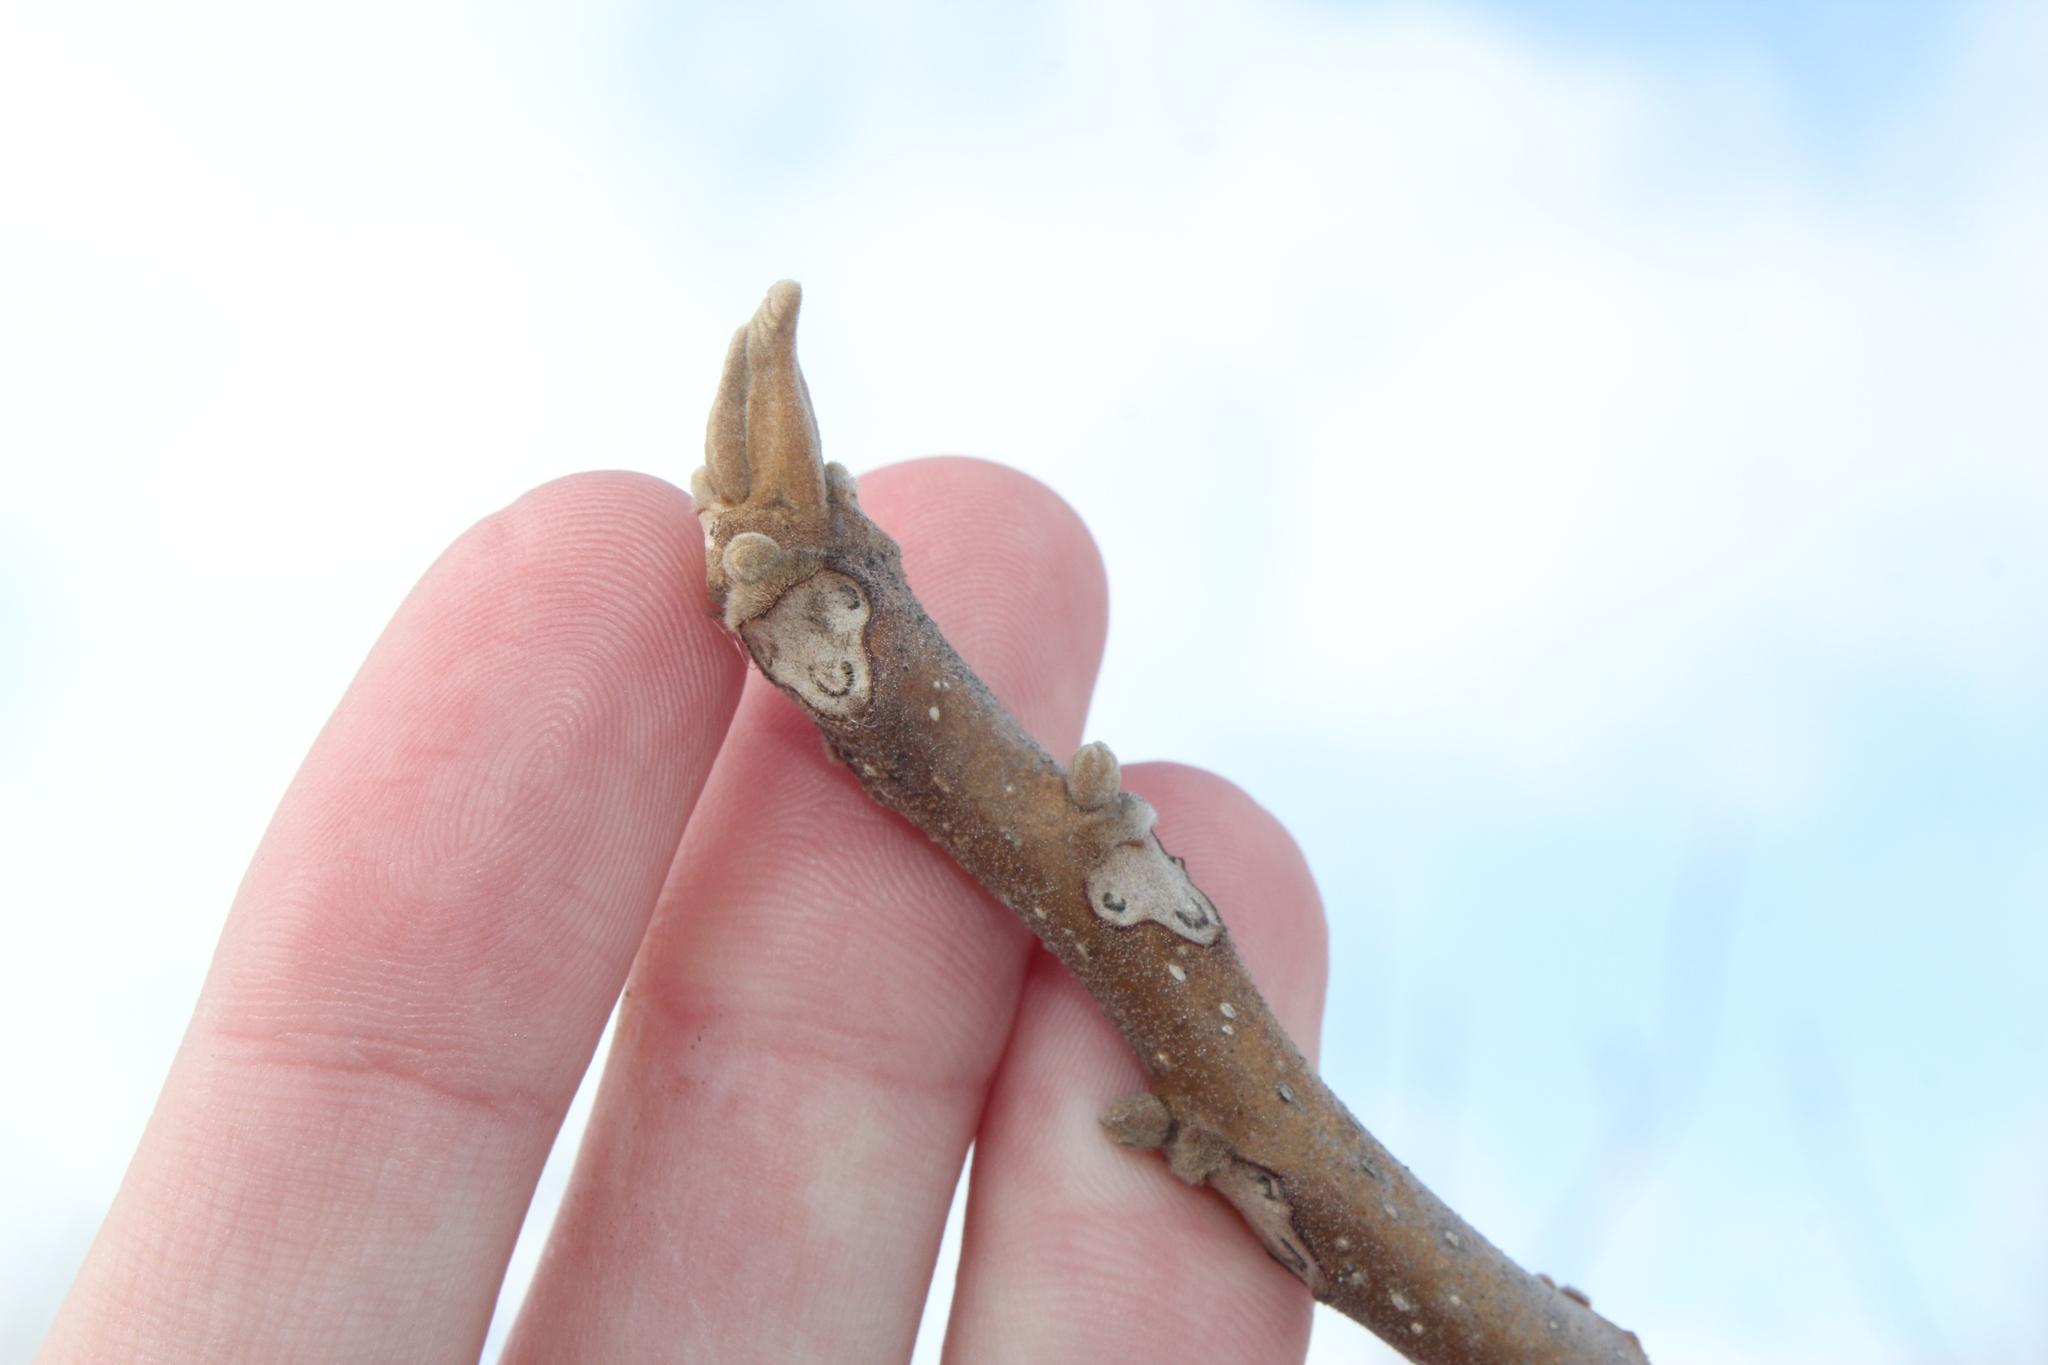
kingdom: Plantae
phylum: Tracheophyta
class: Magnoliopsida
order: Fagales
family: Juglandaceae
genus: Juglans
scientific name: Juglans cinerea
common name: Butternut
